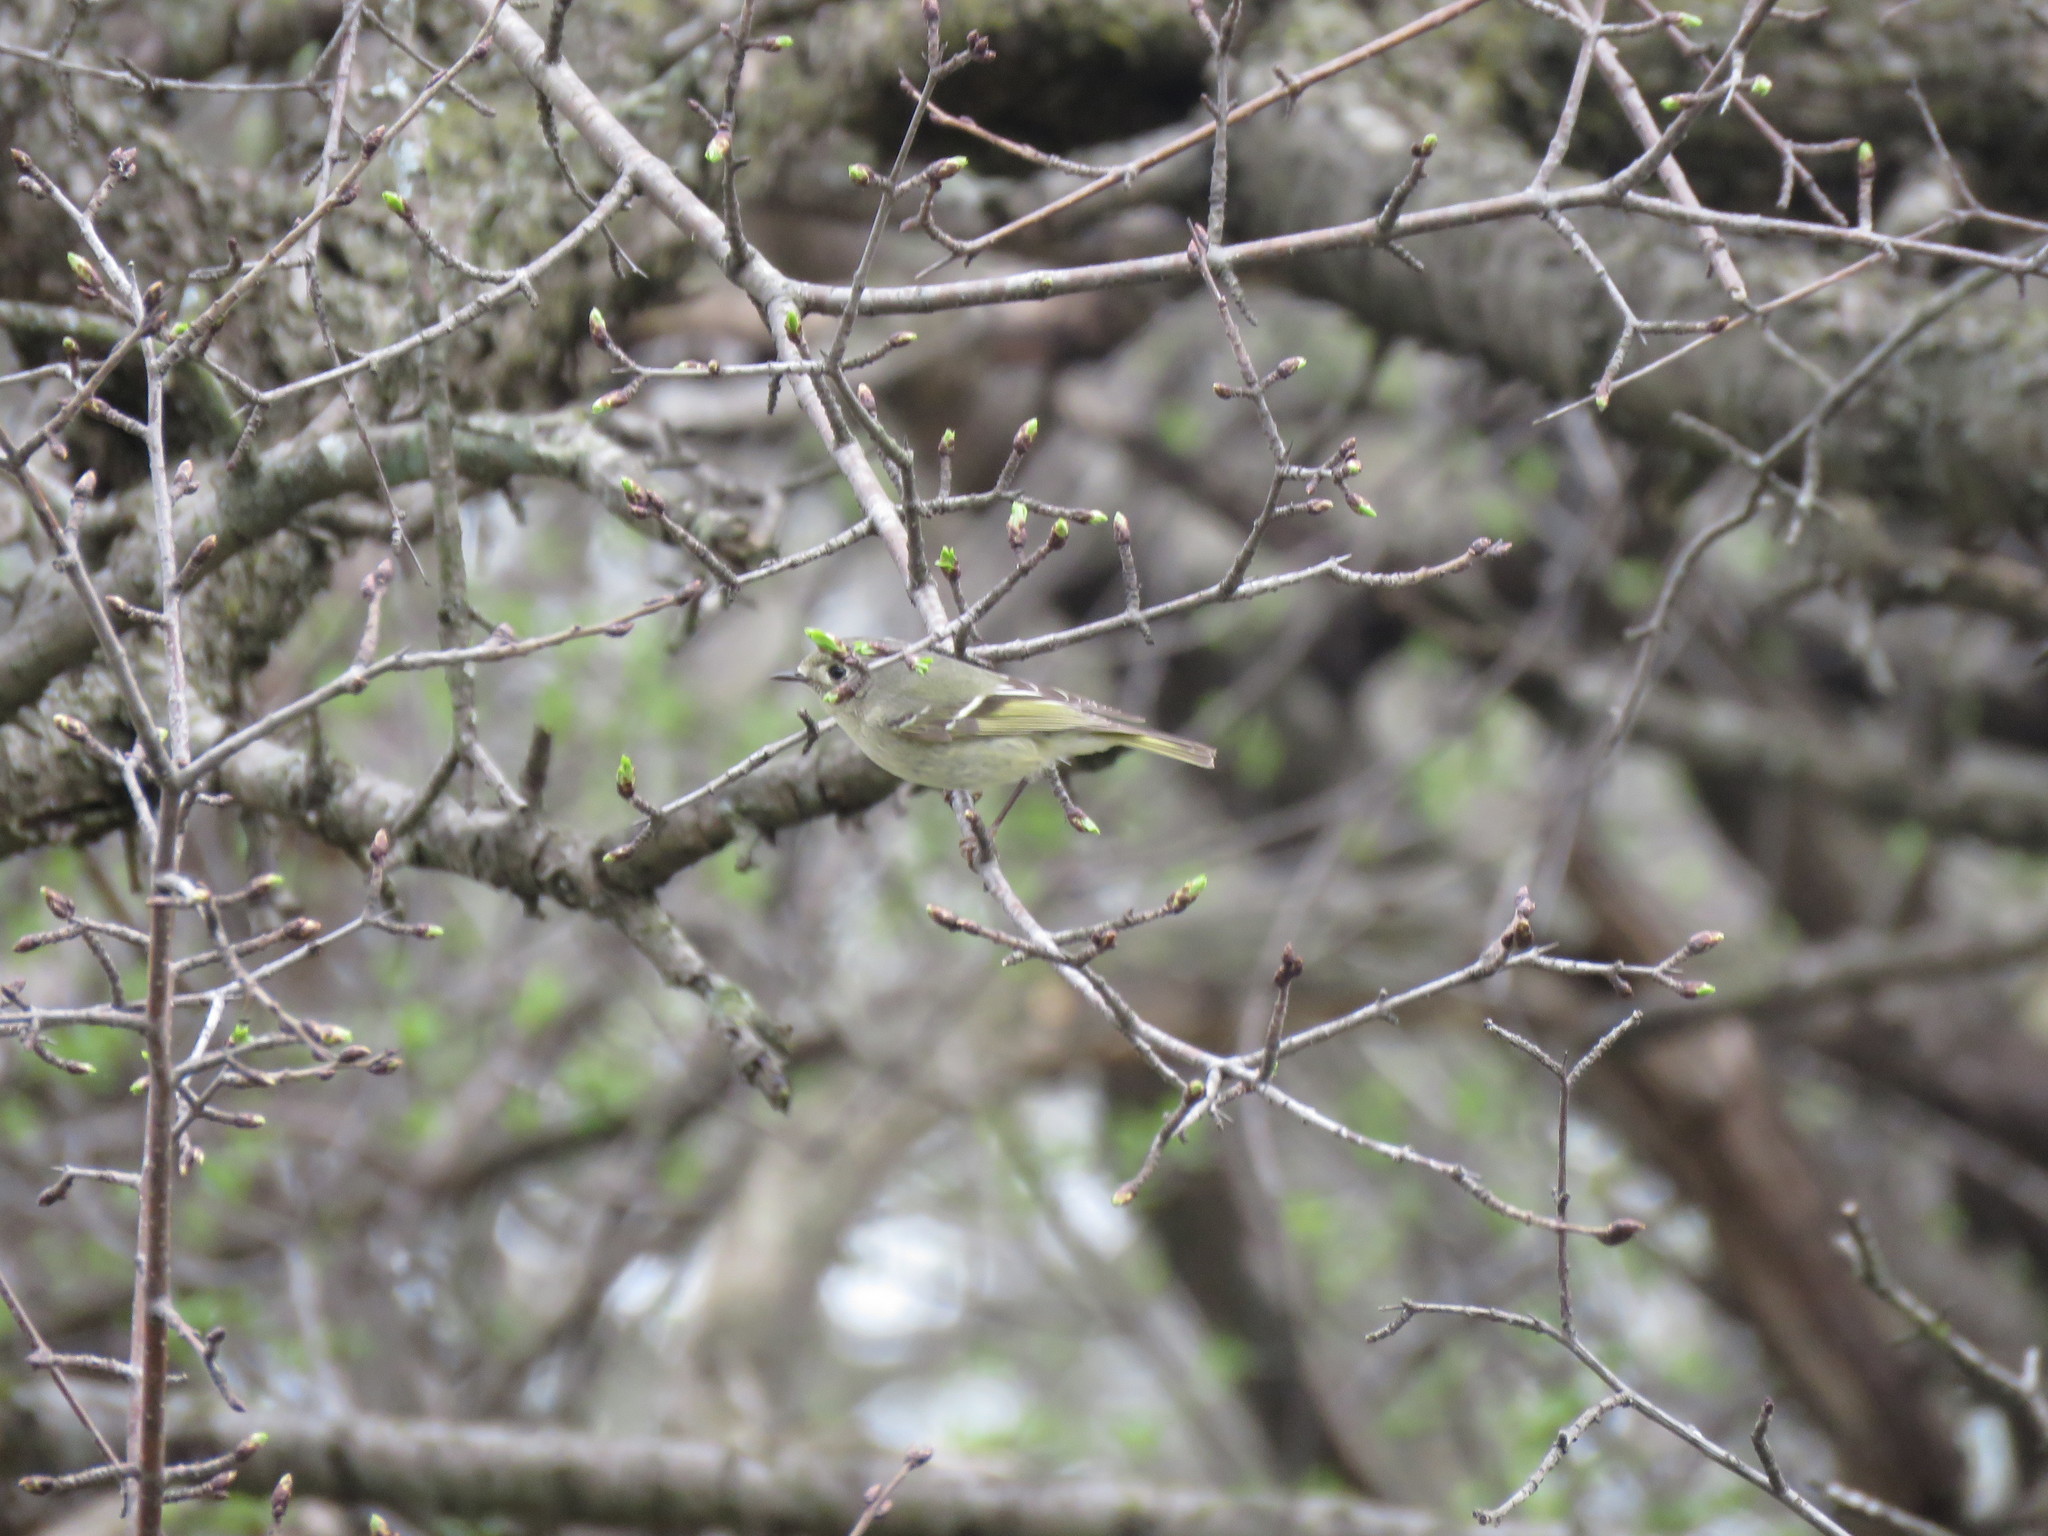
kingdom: Animalia
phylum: Chordata
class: Aves
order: Passeriformes
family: Regulidae
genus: Regulus
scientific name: Regulus calendula
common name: Ruby-crowned kinglet
